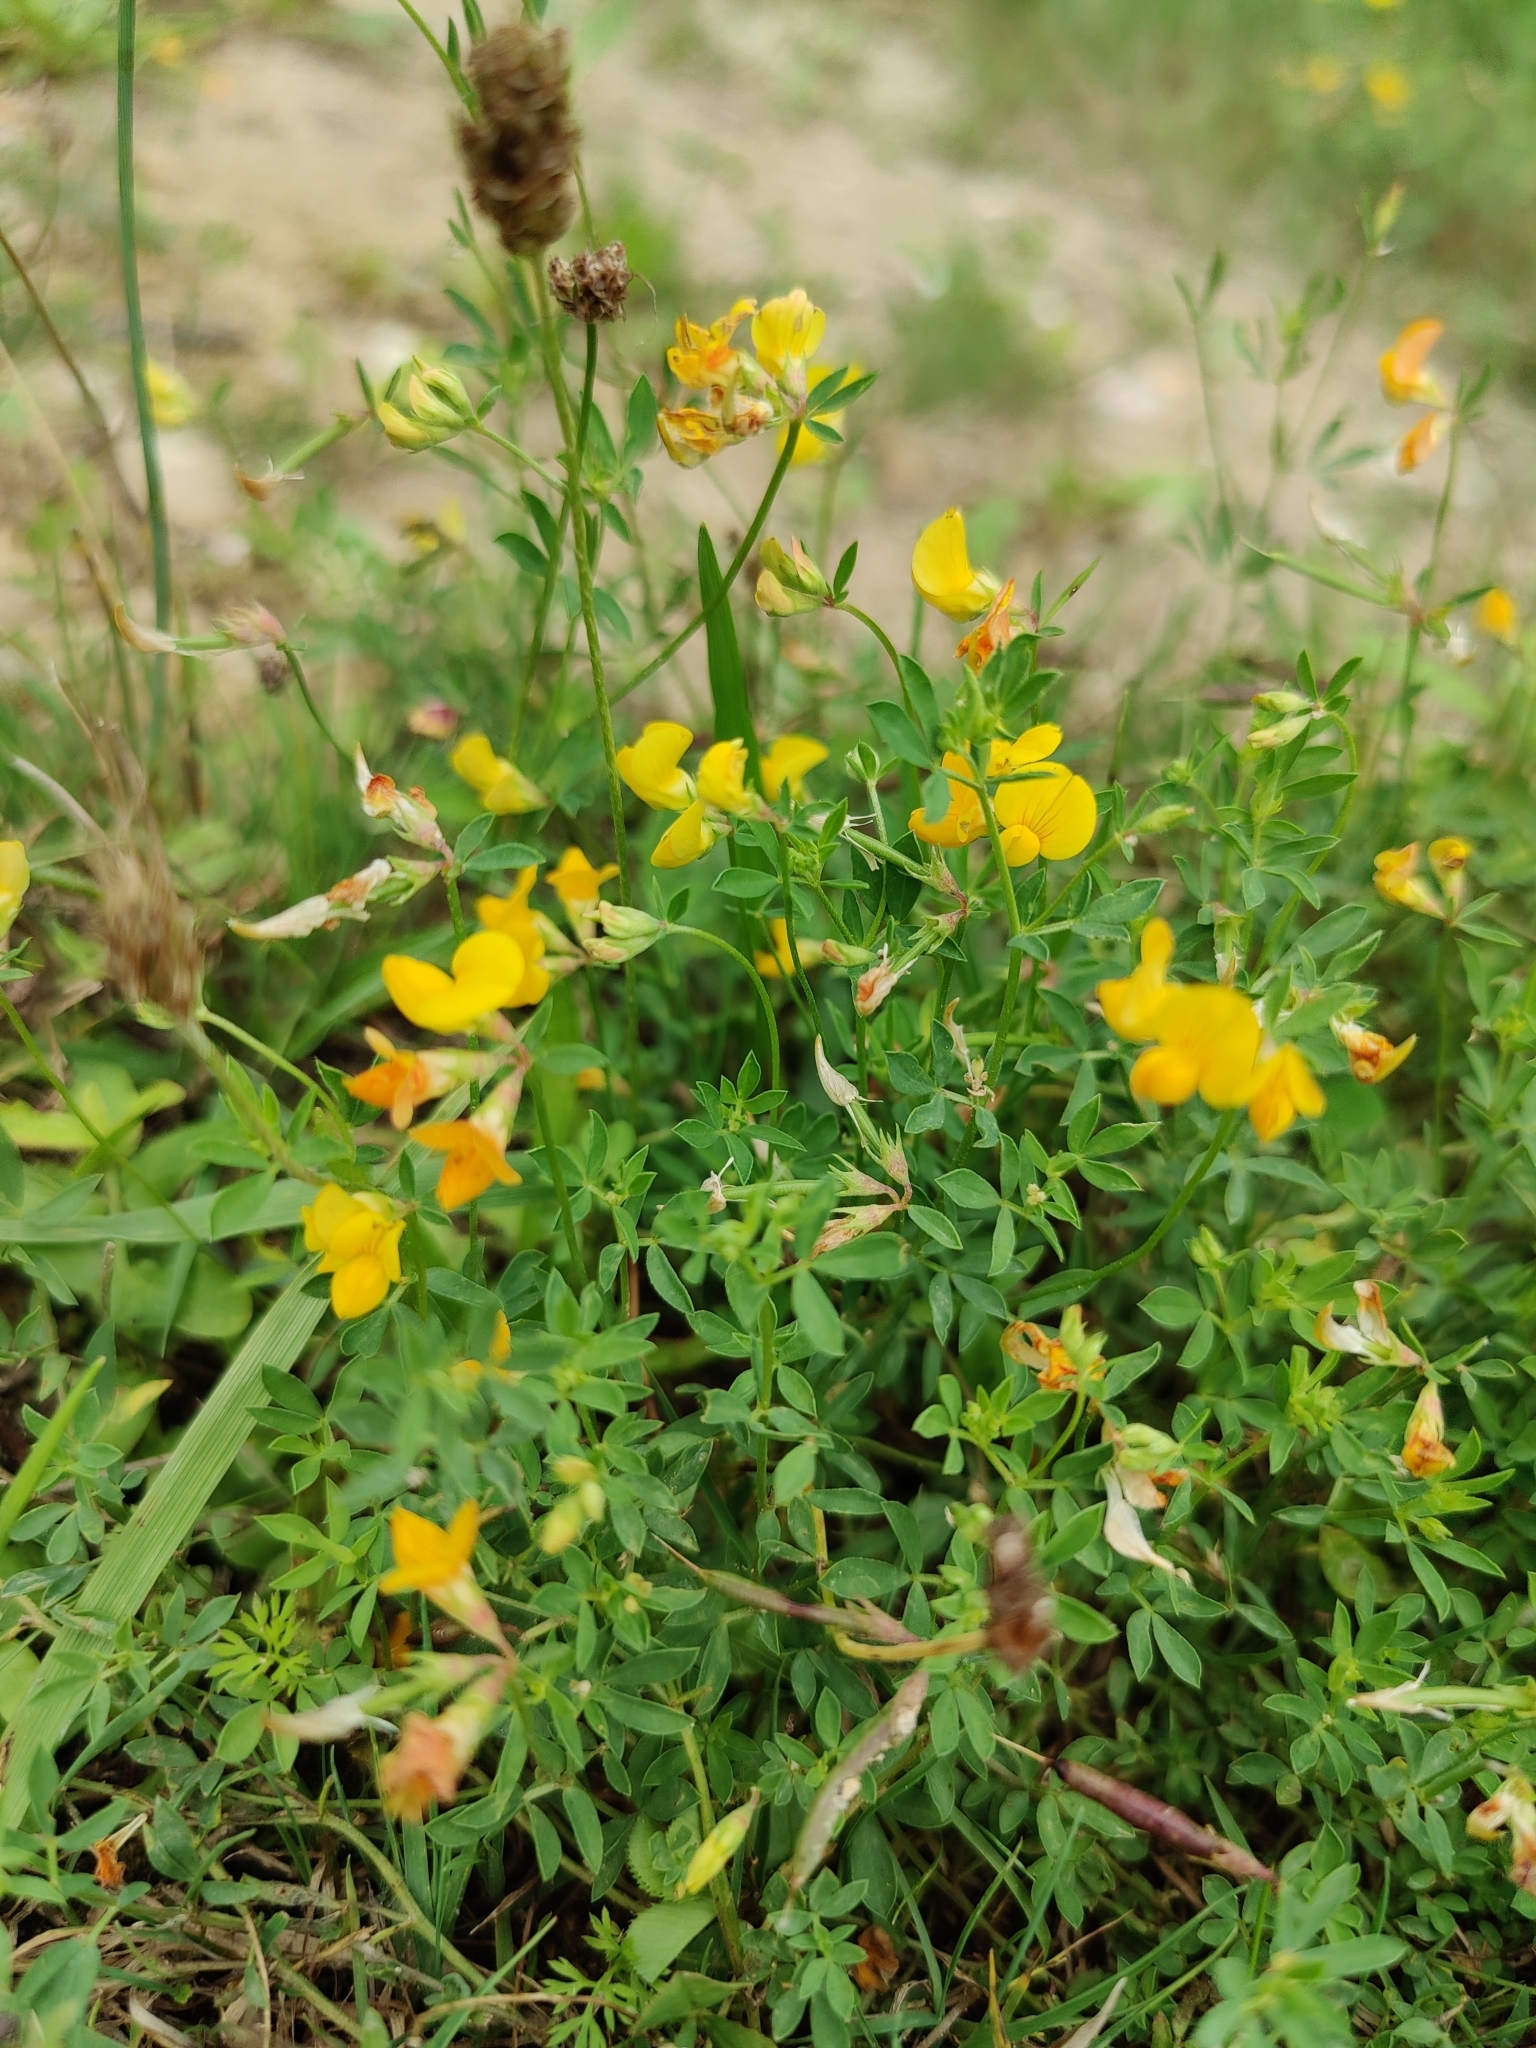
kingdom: Plantae
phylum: Tracheophyta
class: Magnoliopsida
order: Fabales
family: Fabaceae
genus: Lotus
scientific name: Lotus corniculatus
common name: Common bird's-foot-trefoil
